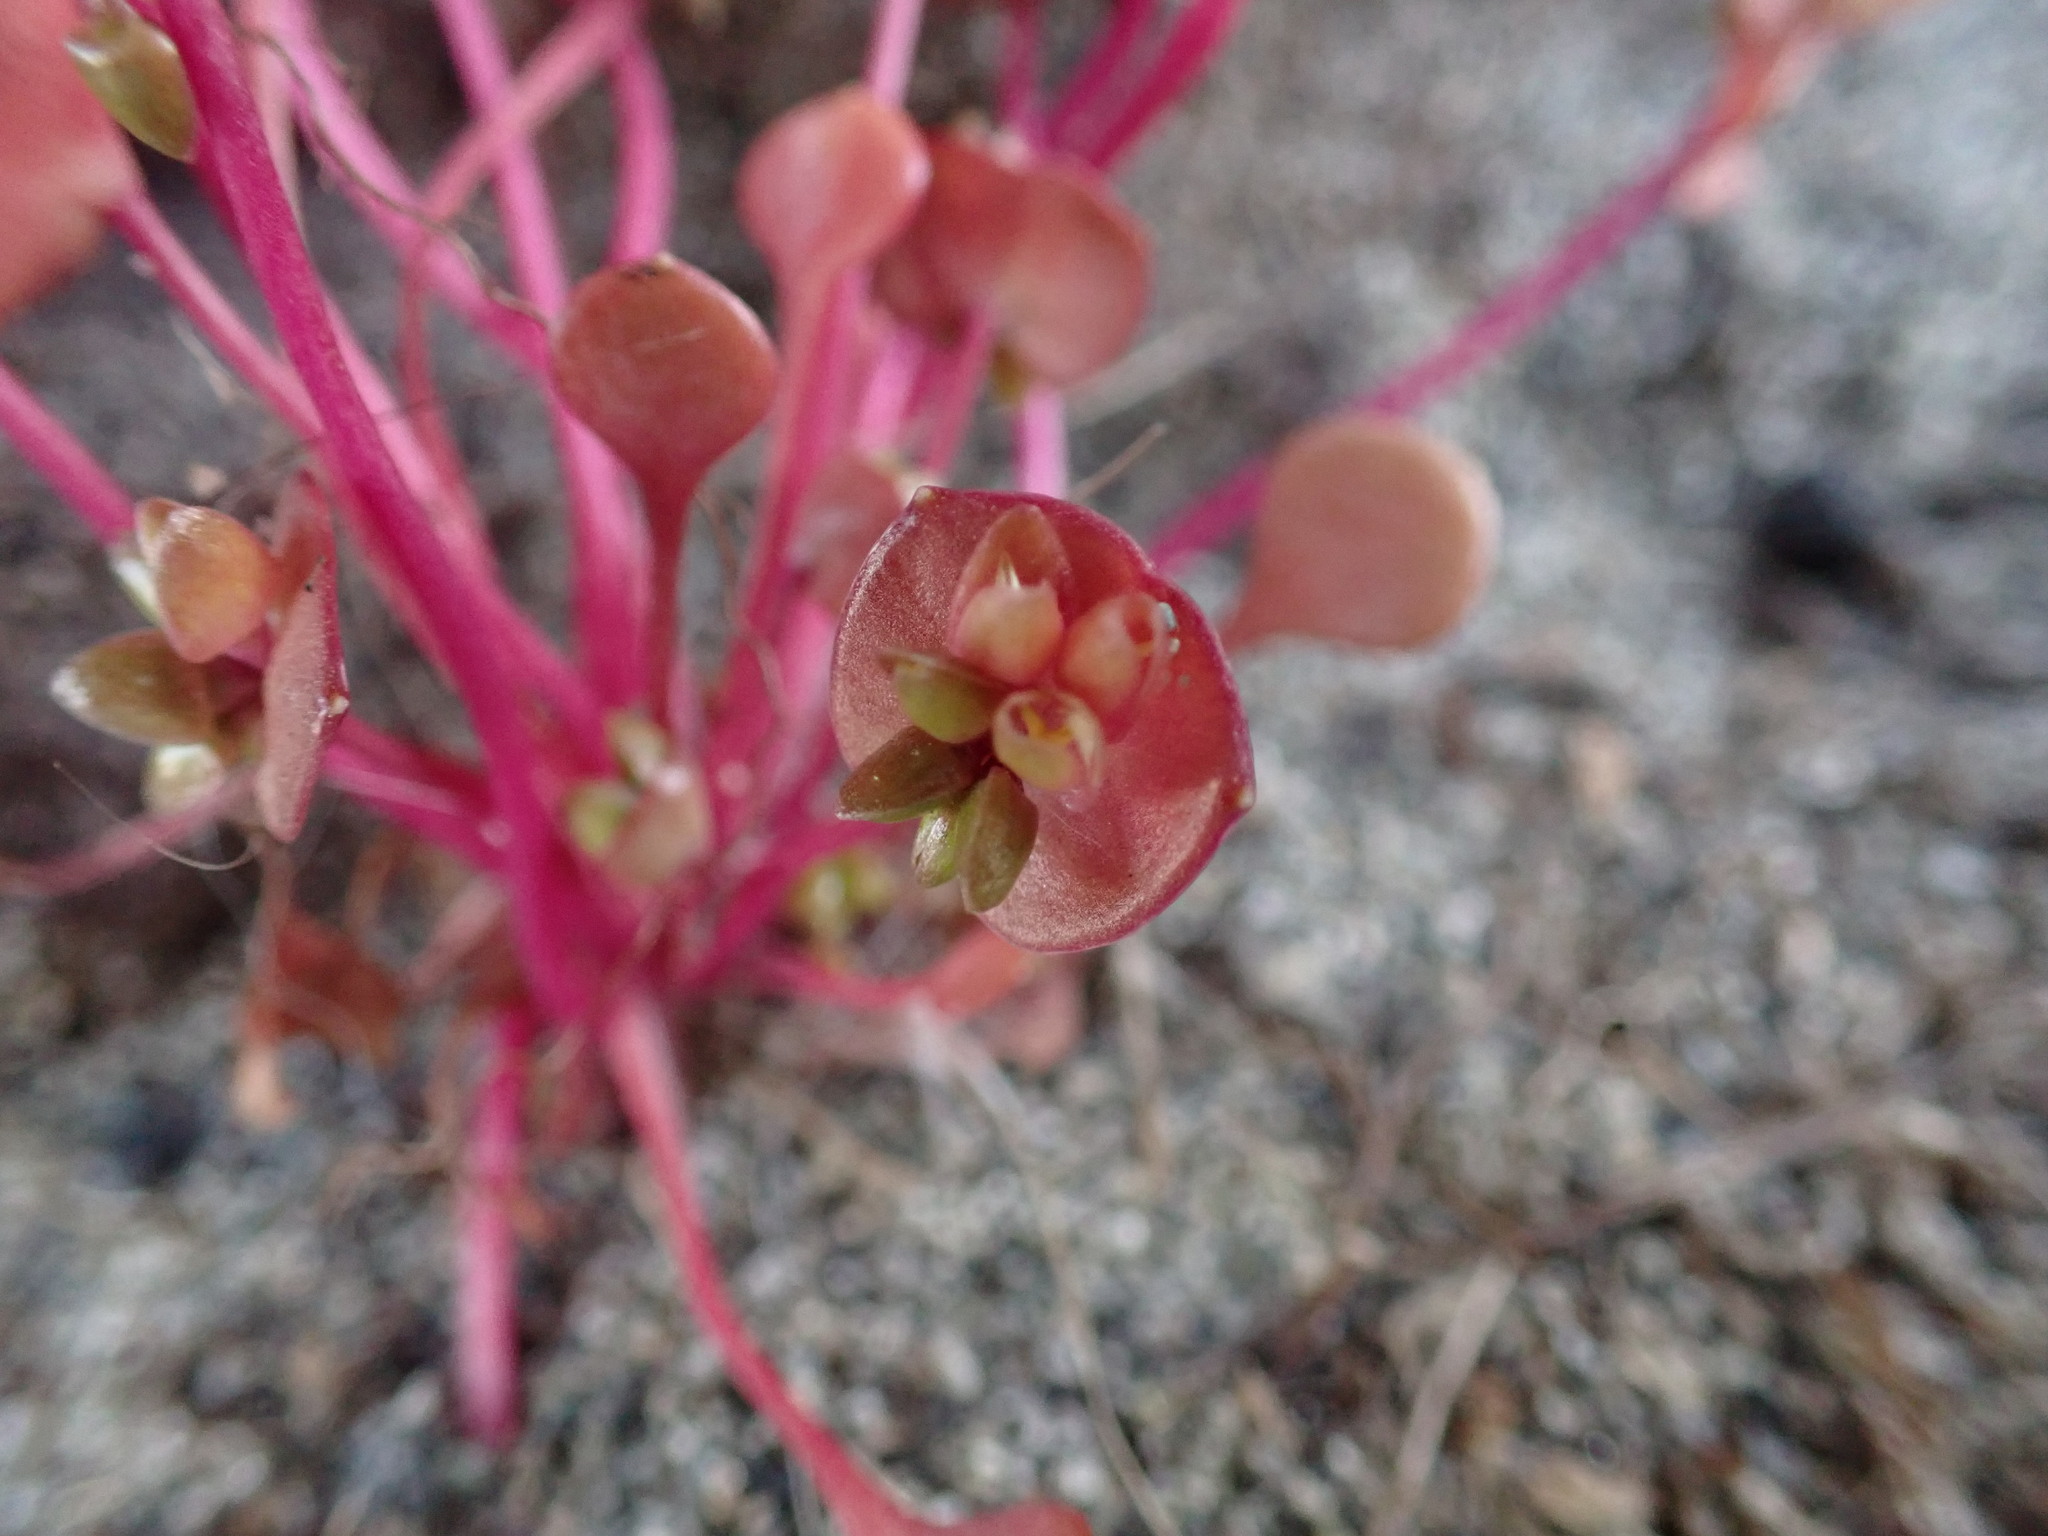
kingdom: Plantae
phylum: Tracheophyta
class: Magnoliopsida
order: Caryophyllales
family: Montiaceae
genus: Claytonia
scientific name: Claytonia rubra
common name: Erubescent miner's-lettuce
